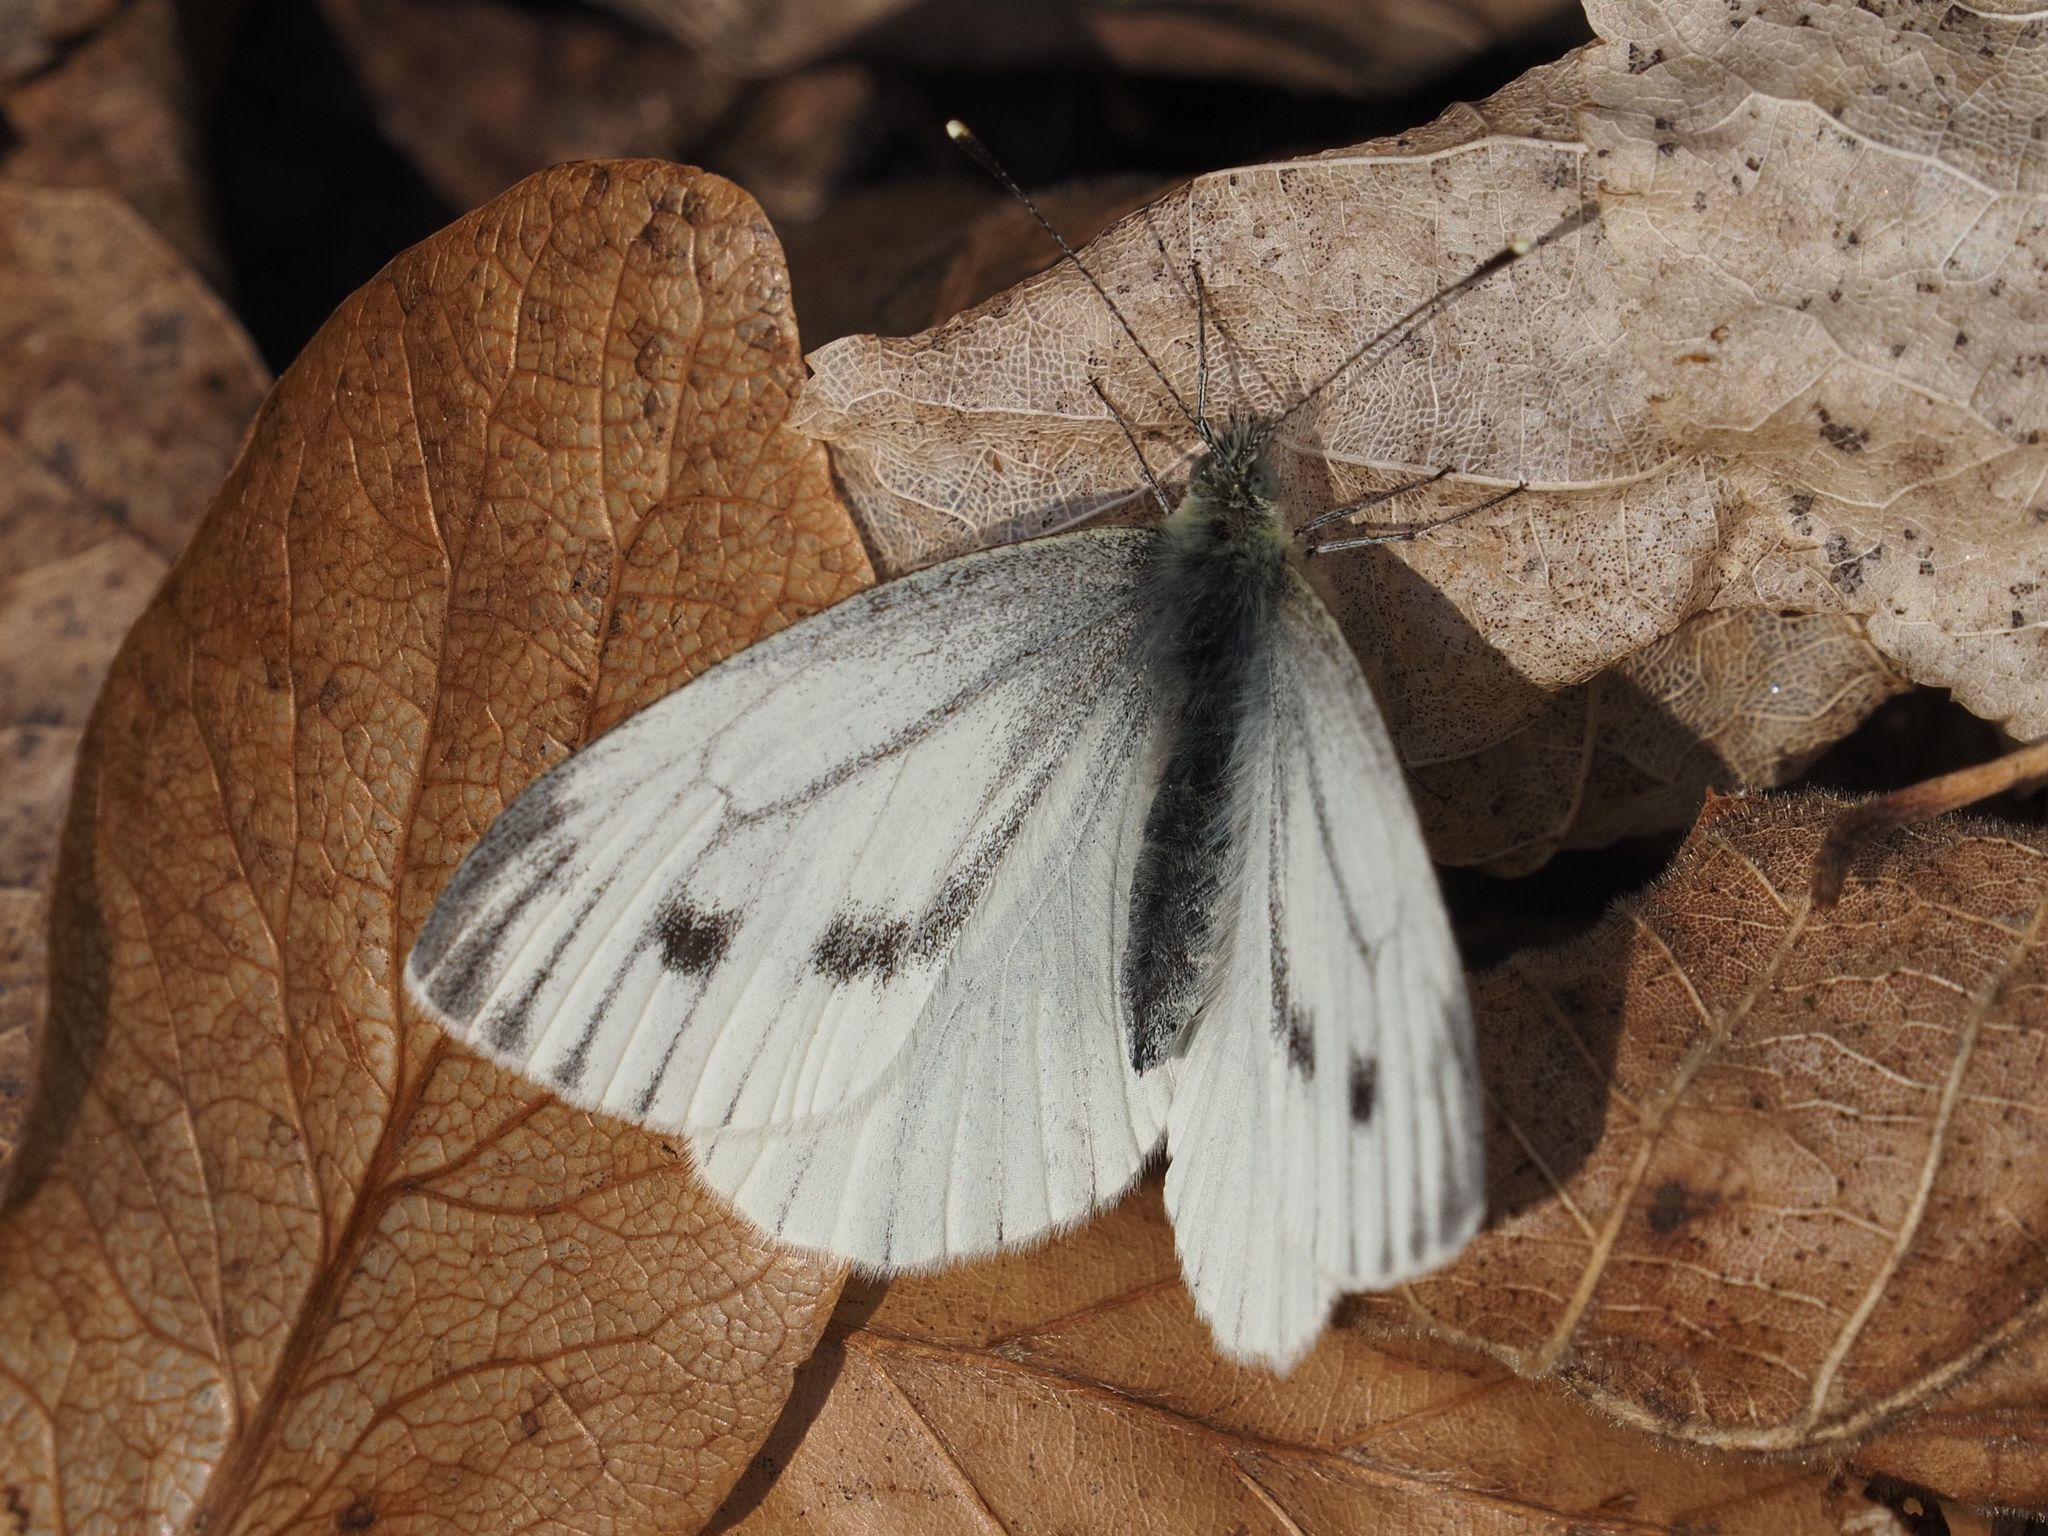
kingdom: Animalia
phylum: Arthropoda
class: Insecta
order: Lepidoptera
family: Pieridae
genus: Pieris
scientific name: Pieris napi
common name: Green-veined white
